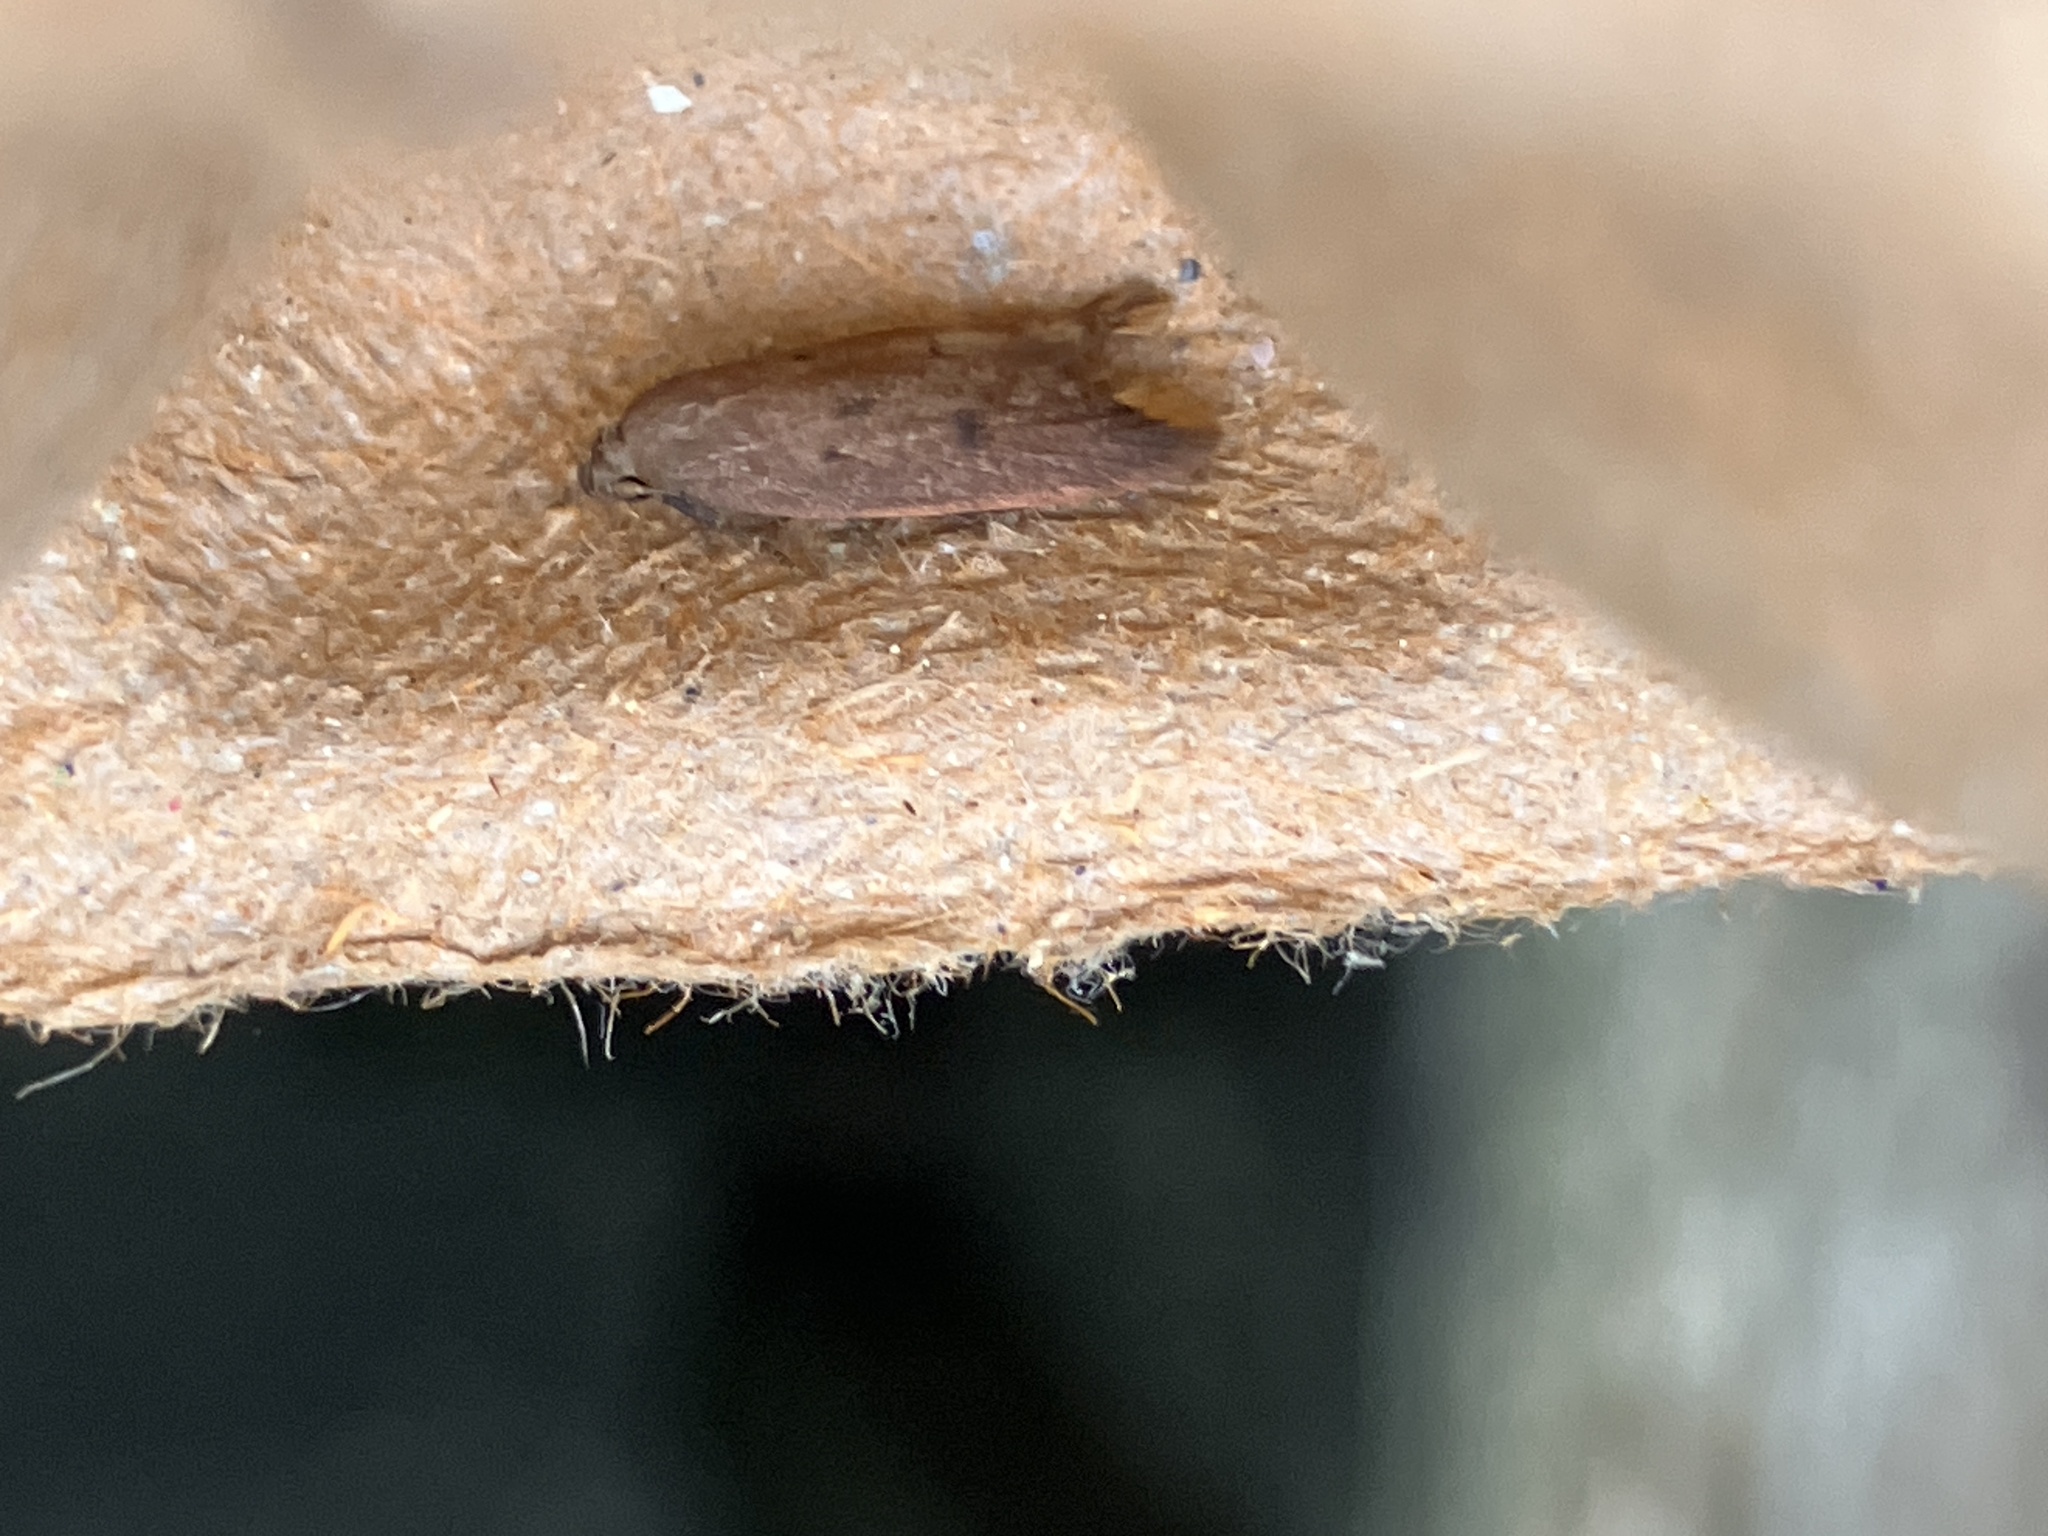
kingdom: Animalia
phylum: Arthropoda
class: Insecta
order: Lepidoptera
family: Oecophoridae
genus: Tachystola
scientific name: Tachystola acroxantha
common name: Ruddy streak
